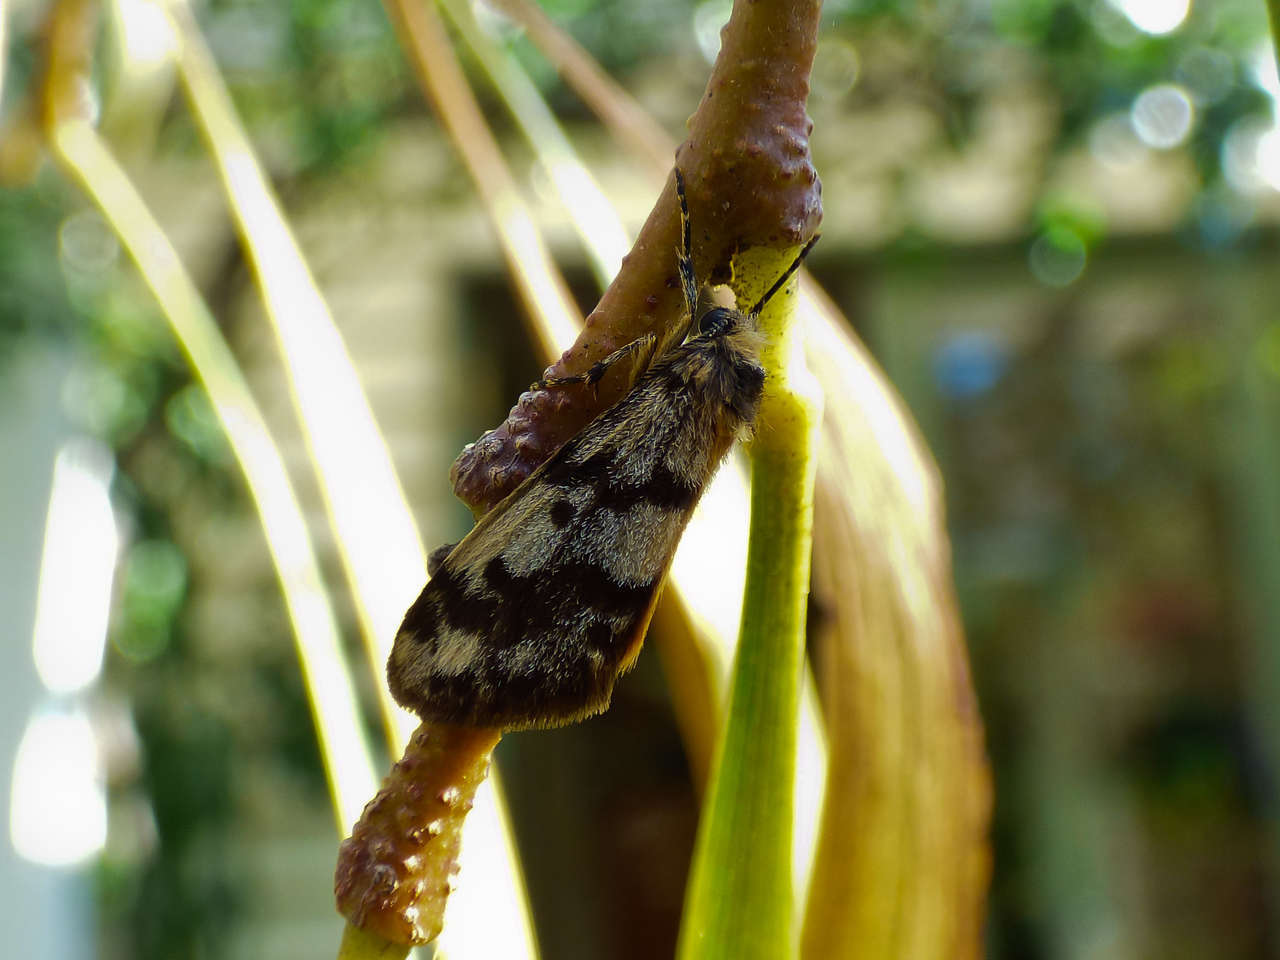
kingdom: Animalia
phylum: Arthropoda
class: Insecta
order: Lepidoptera
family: Erebidae
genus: Anestia
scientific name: Anestia
